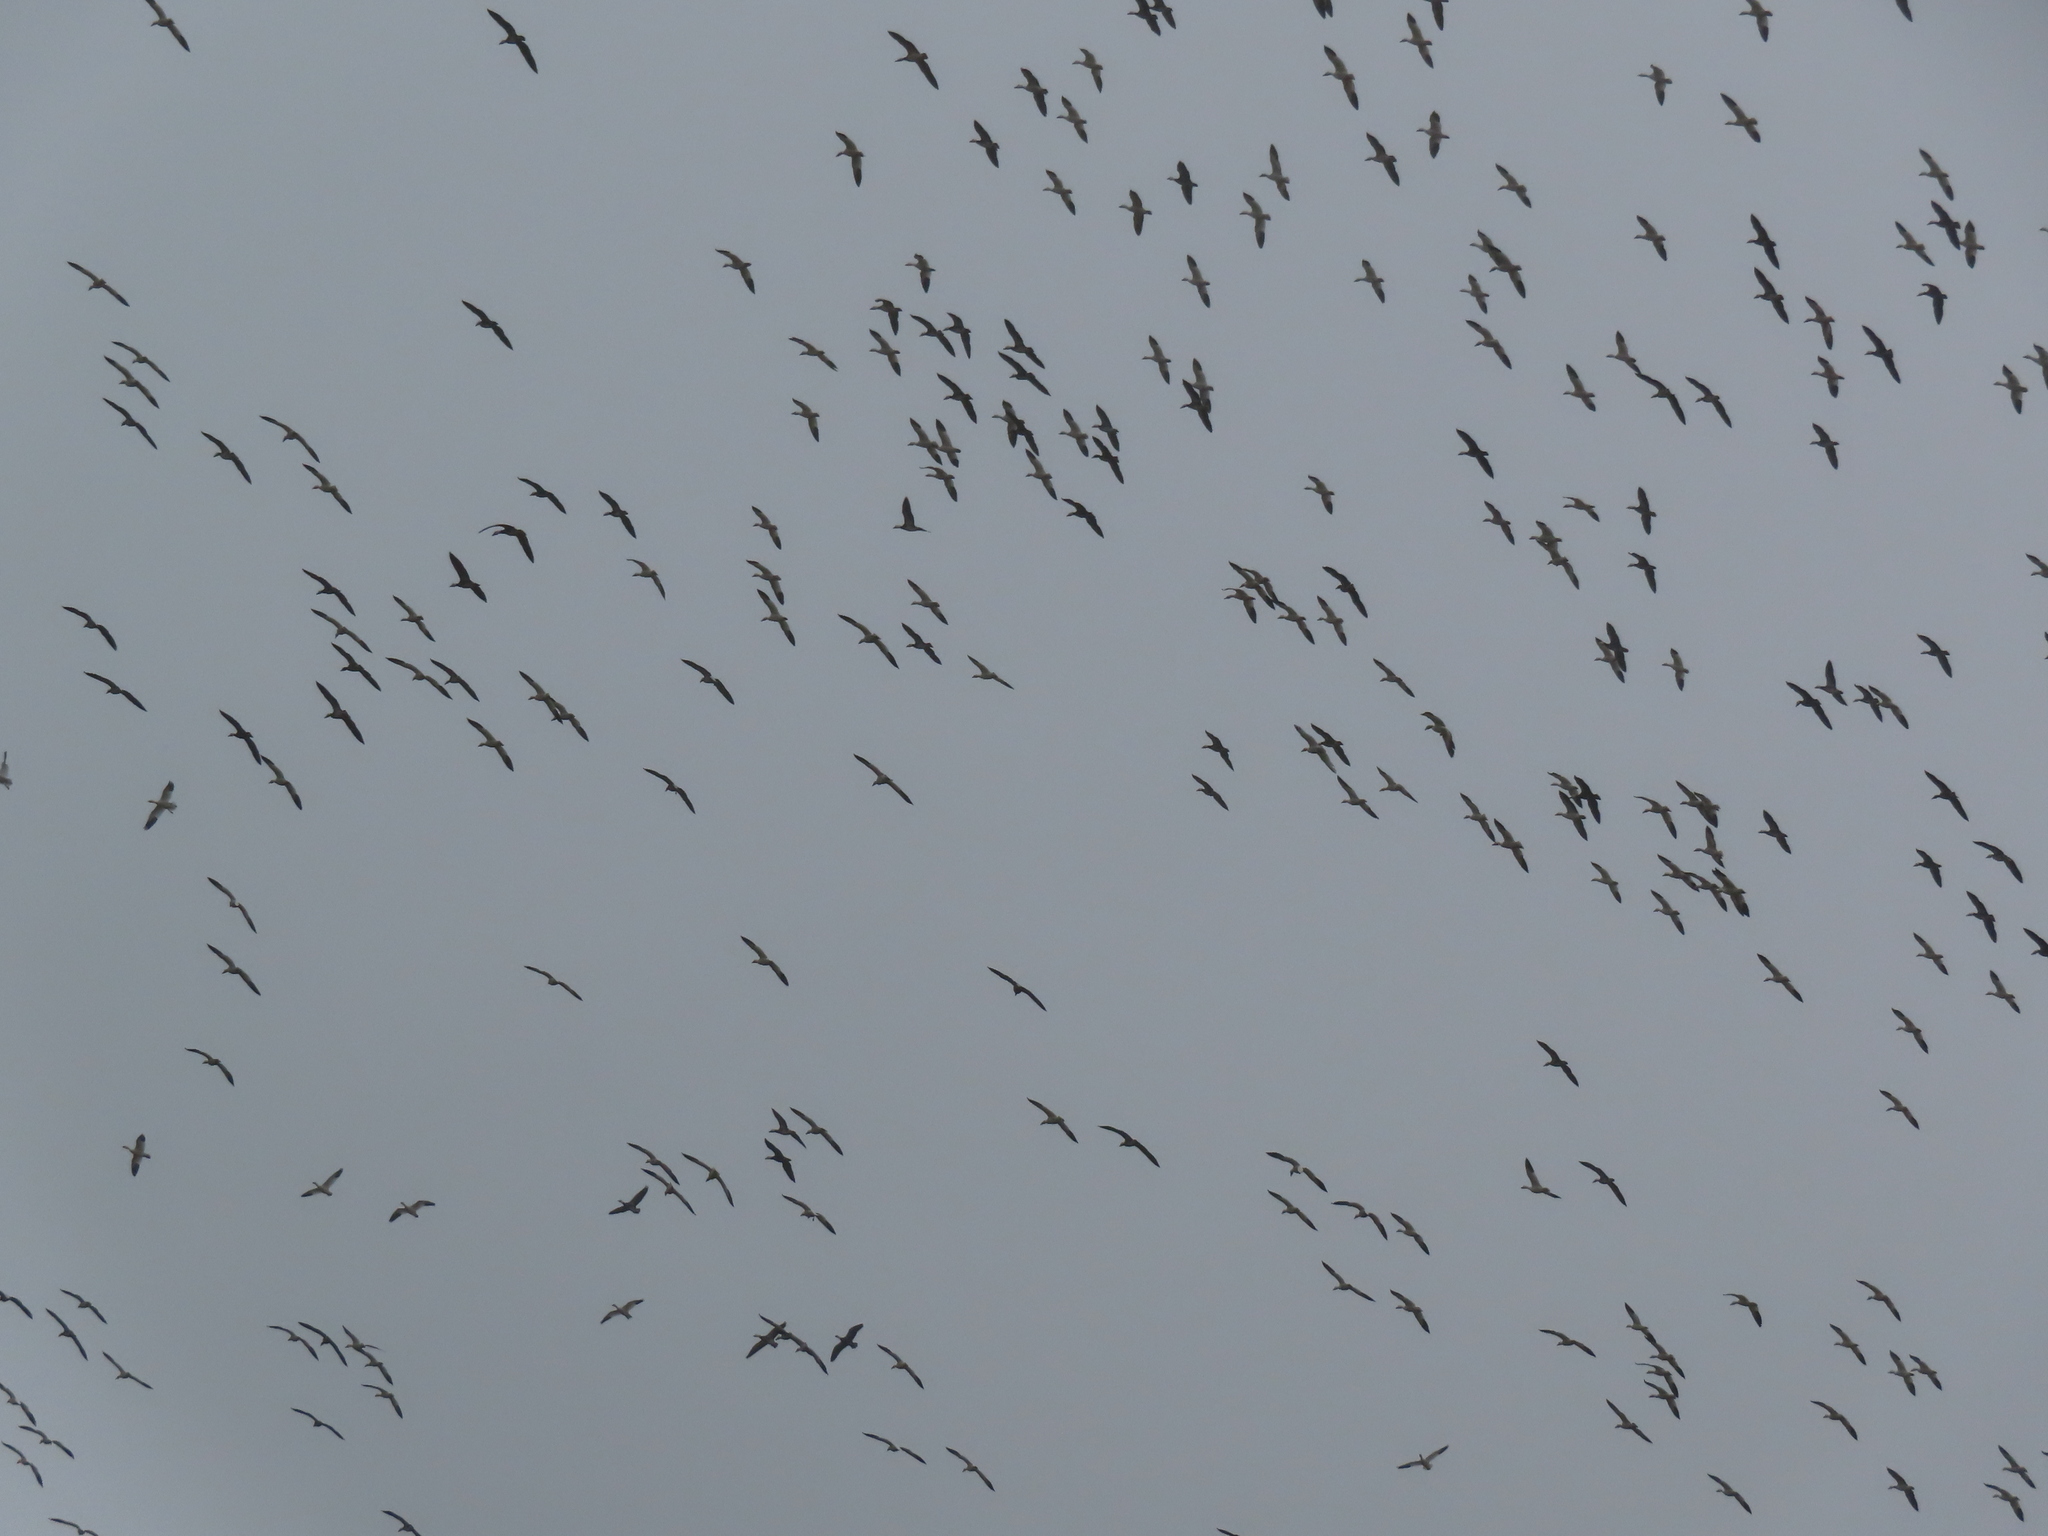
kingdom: Animalia
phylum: Chordata
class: Aves
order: Anseriformes
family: Anatidae
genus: Anser
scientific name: Anser caerulescens
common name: Snow goose
